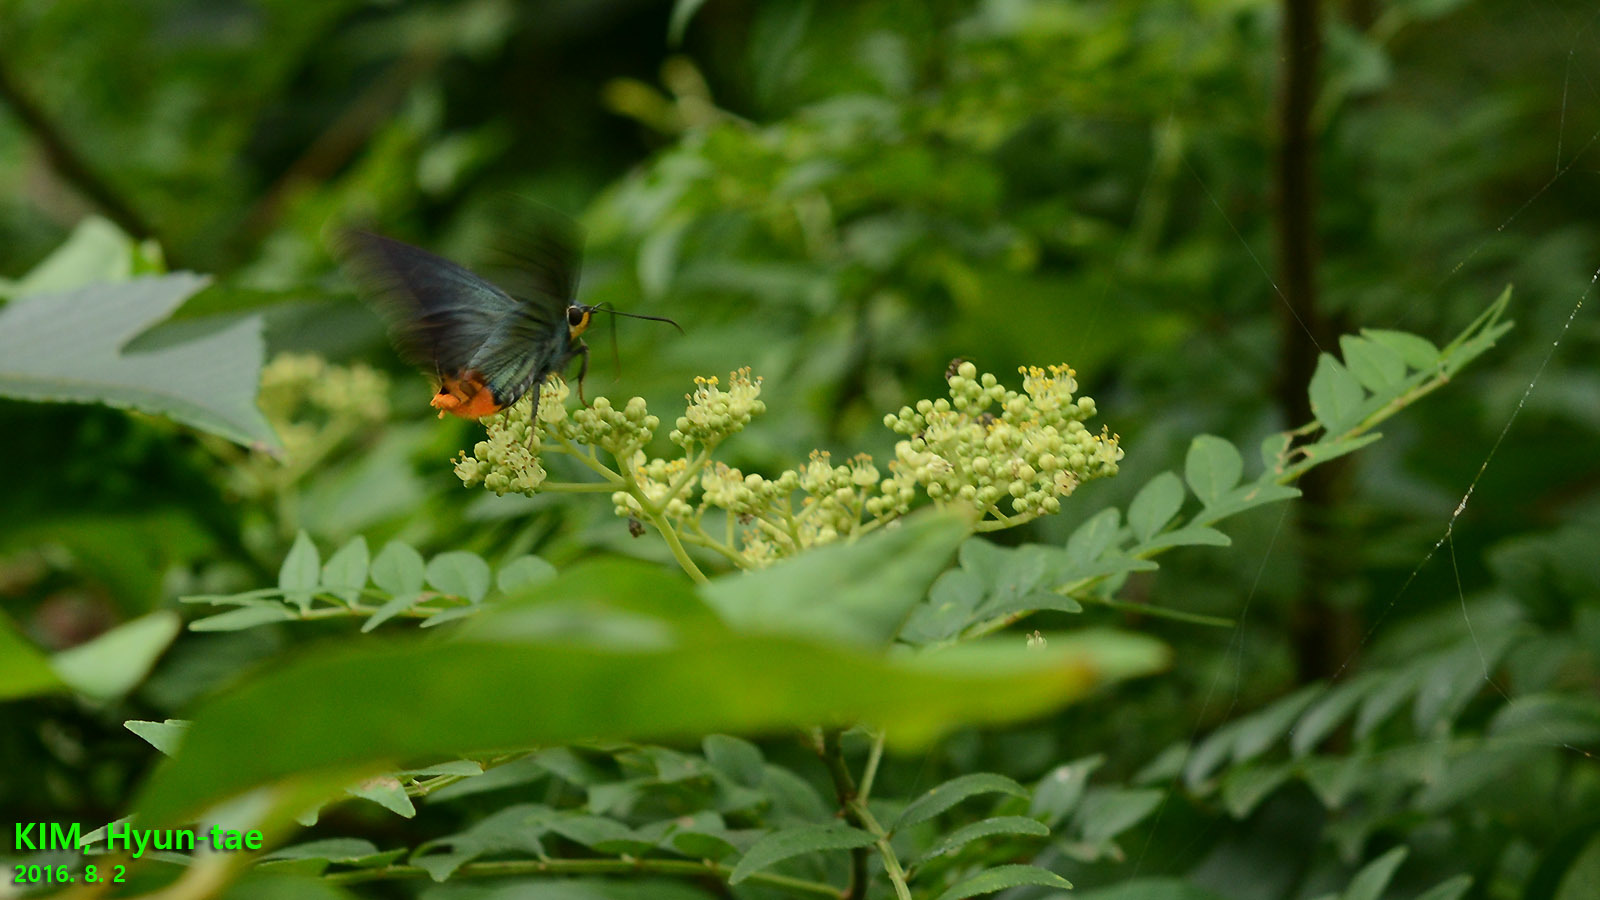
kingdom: Animalia
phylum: Arthropoda
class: Insecta
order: Lepidoptera
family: Hesperiidae
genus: Choaspes
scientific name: Choaspes benjaminii
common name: Indian awlking
